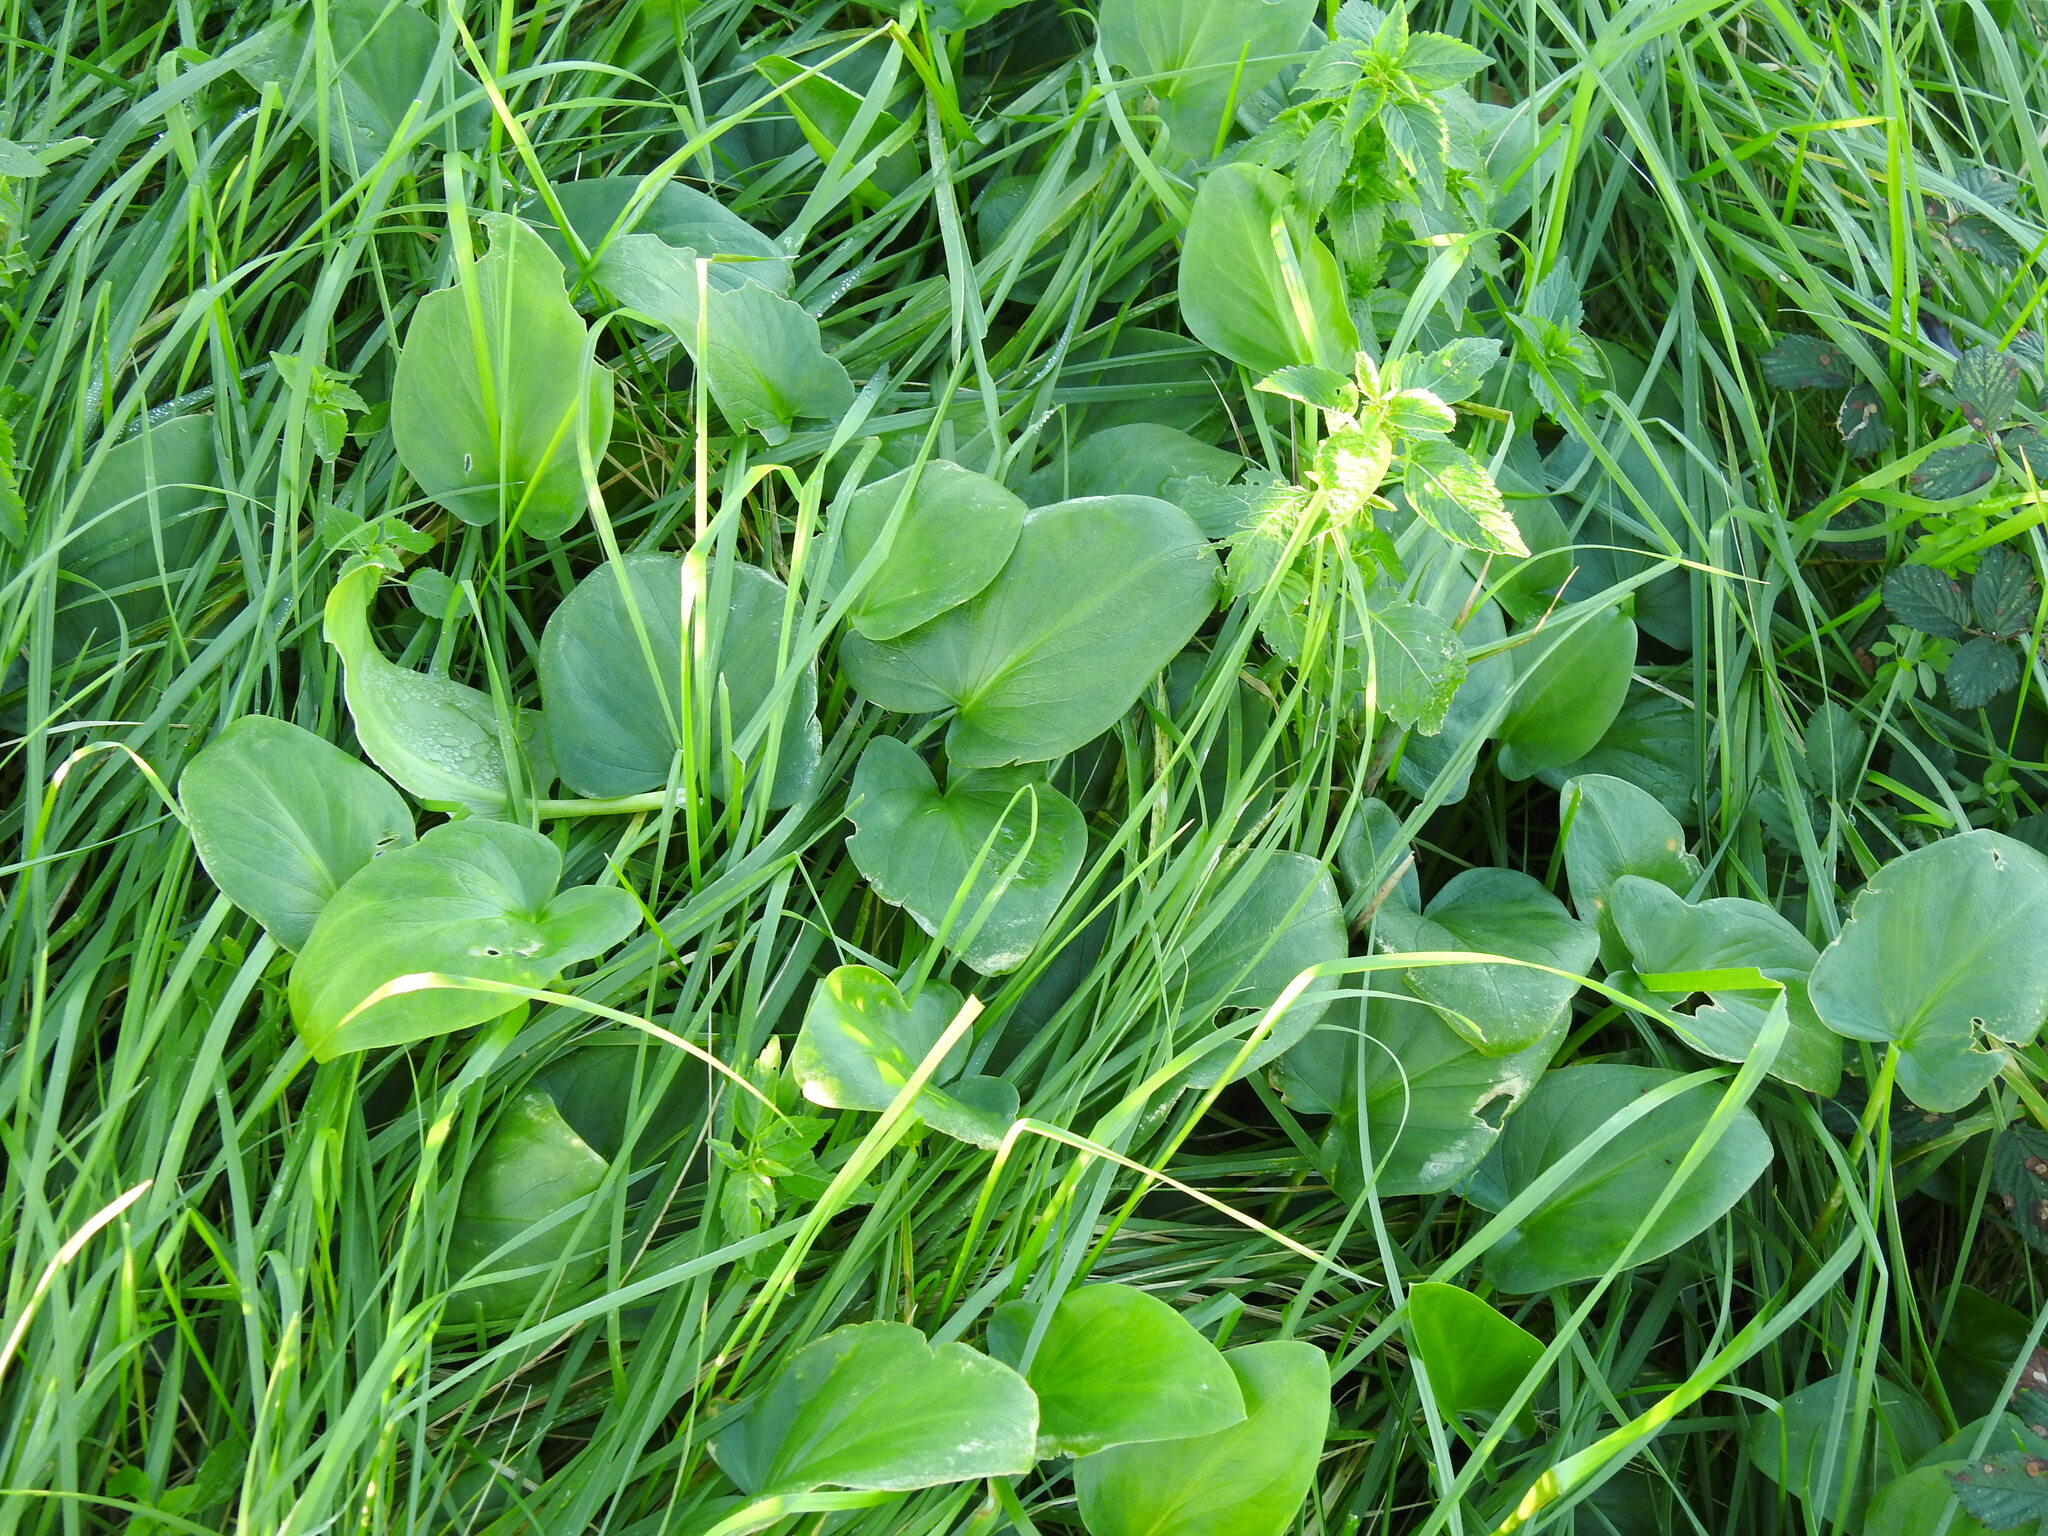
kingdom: Plantae
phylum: Tracheophyta
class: Liliopsida
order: Alismatales
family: Araceae
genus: Arisarum
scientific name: Arisarum simorrhinum
